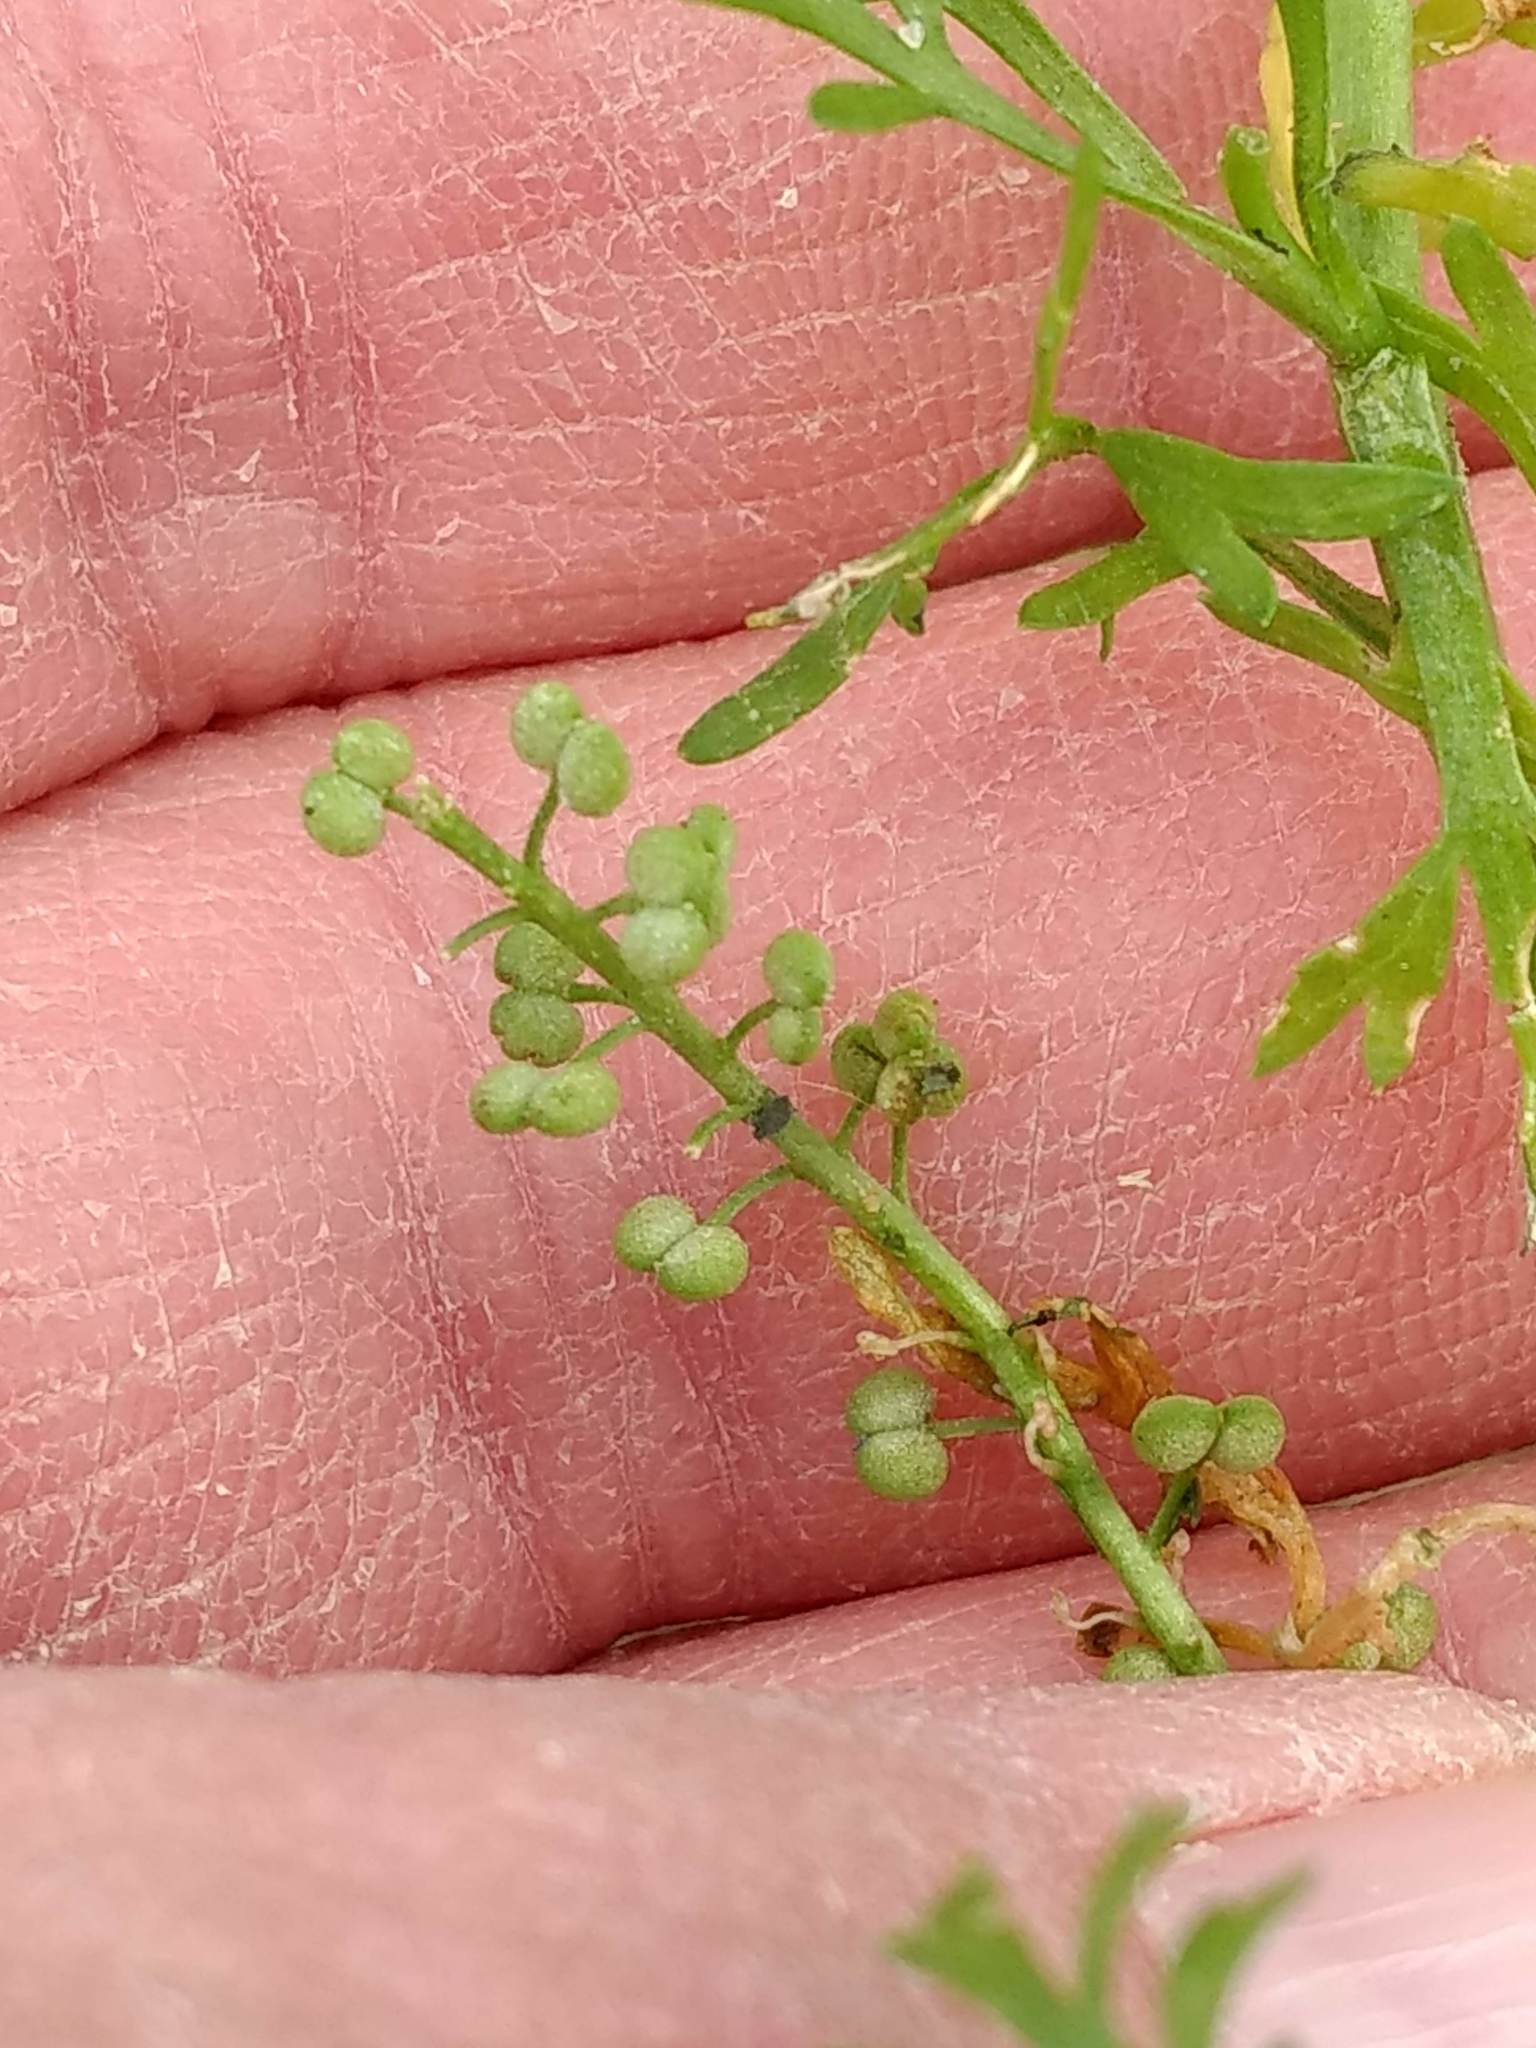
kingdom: Plantae
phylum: Tracheophyta
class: Magnoliopsida
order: Brassicales
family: Brassicaceae
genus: Lepidium
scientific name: Lepidium didymum
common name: Lesser swinecress
